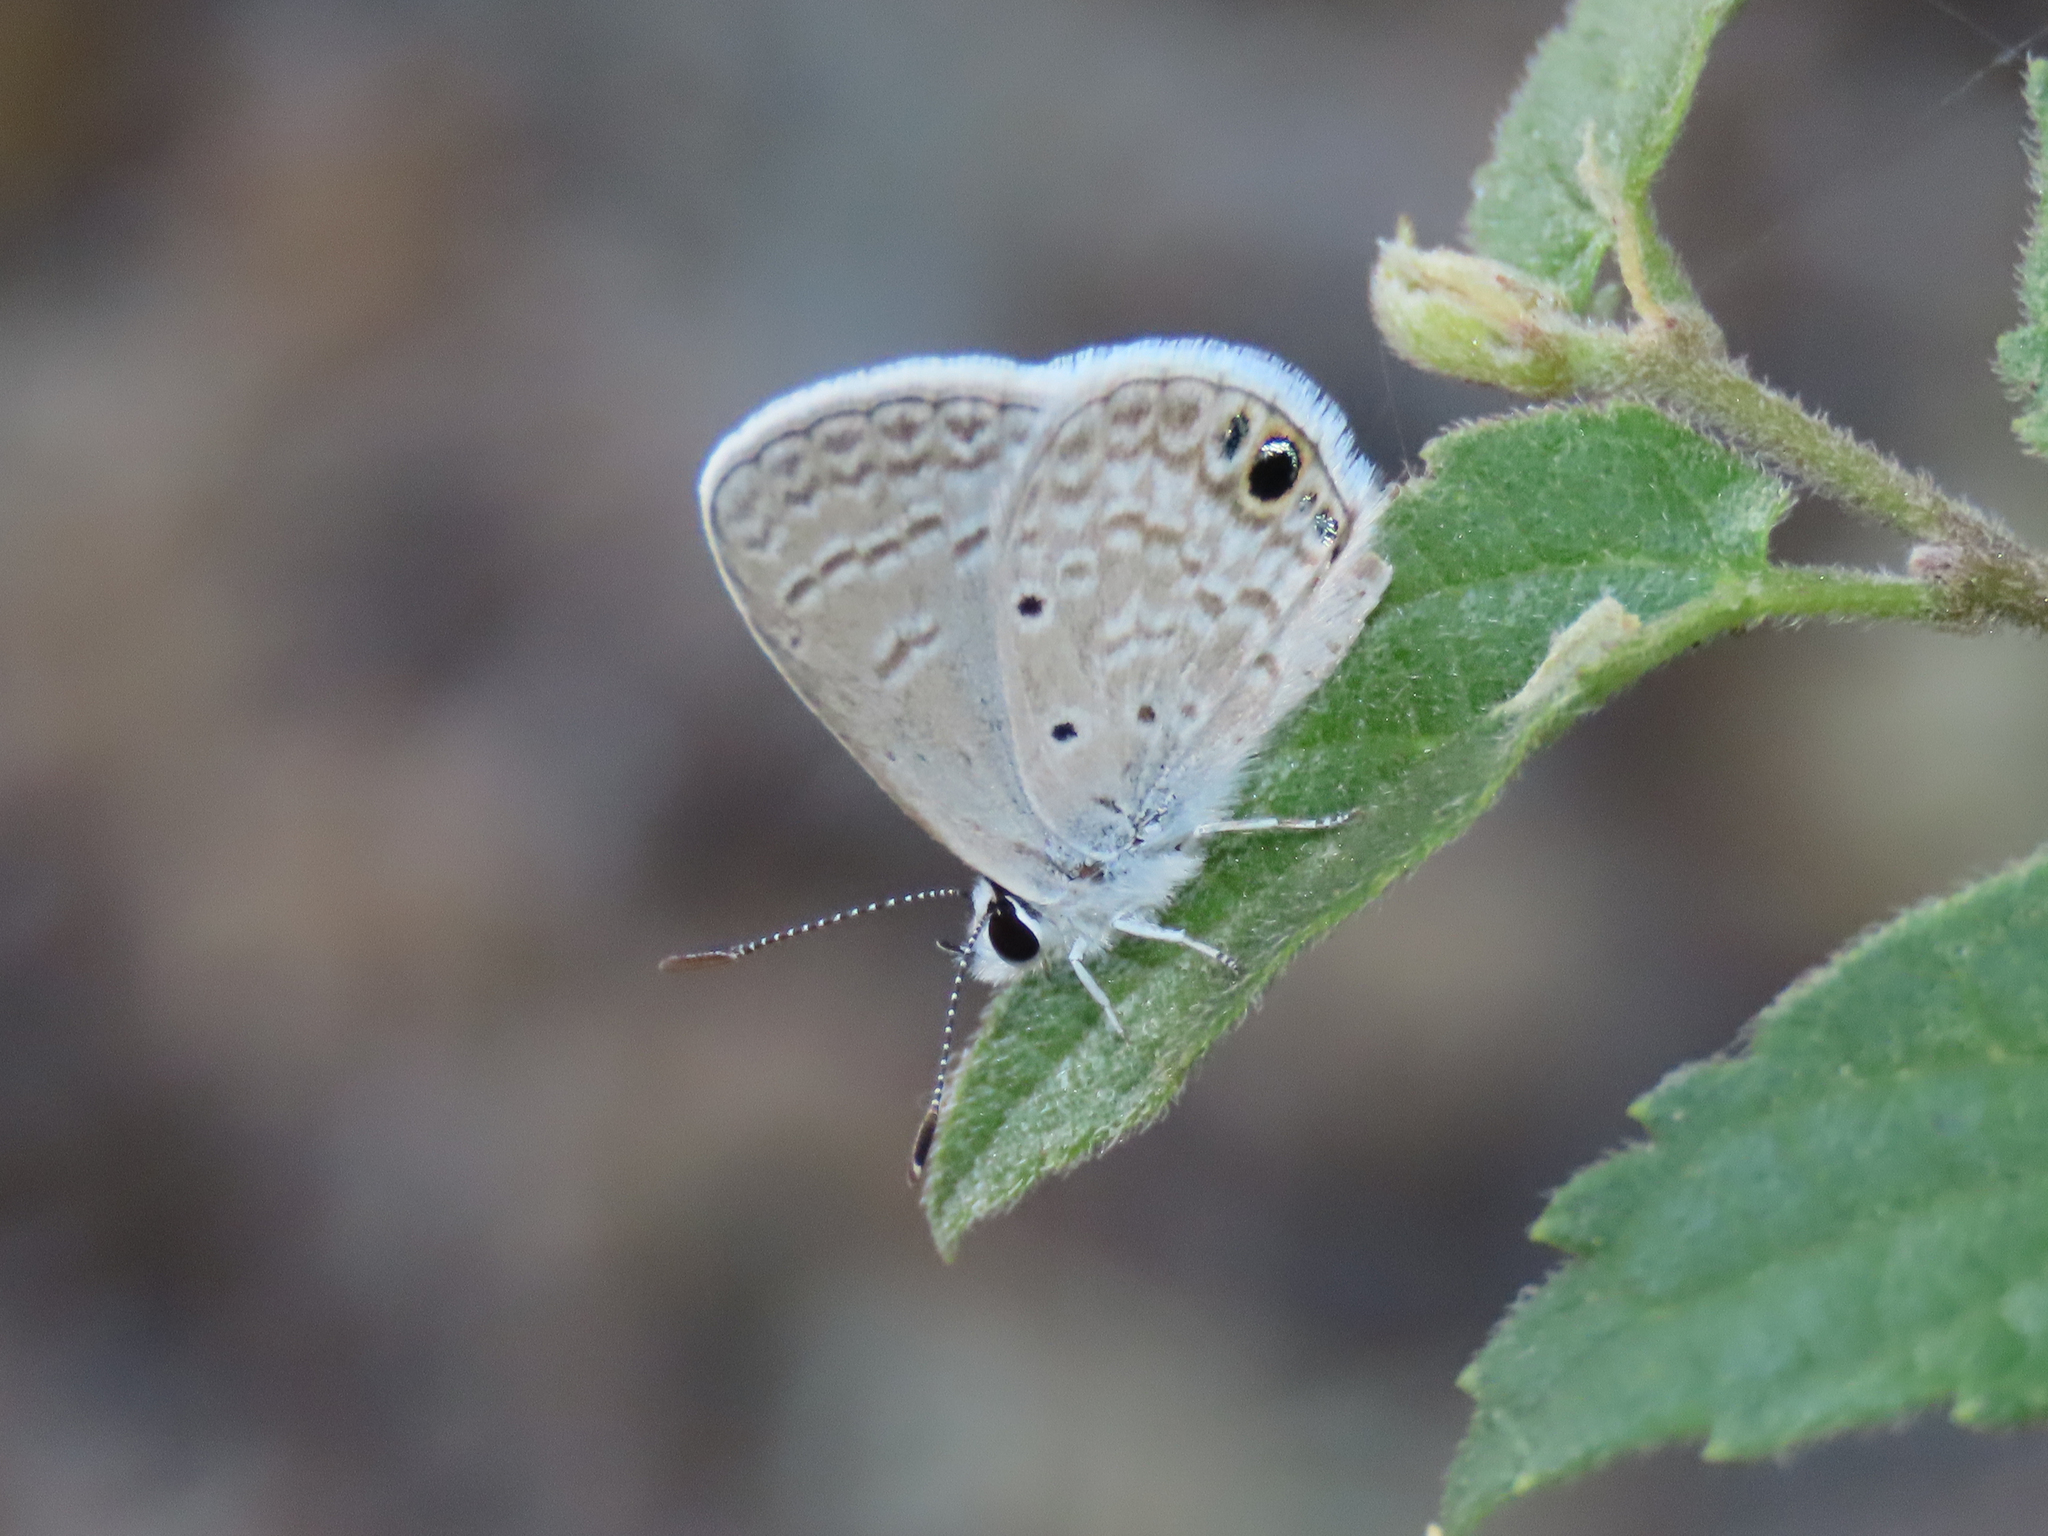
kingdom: Animalia
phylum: Arthropoda
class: Insecta
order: Lepidoptera
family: Lycaenidae
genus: Hemiargus
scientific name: Hemiargus ceraunus
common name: Ceraunus blue
